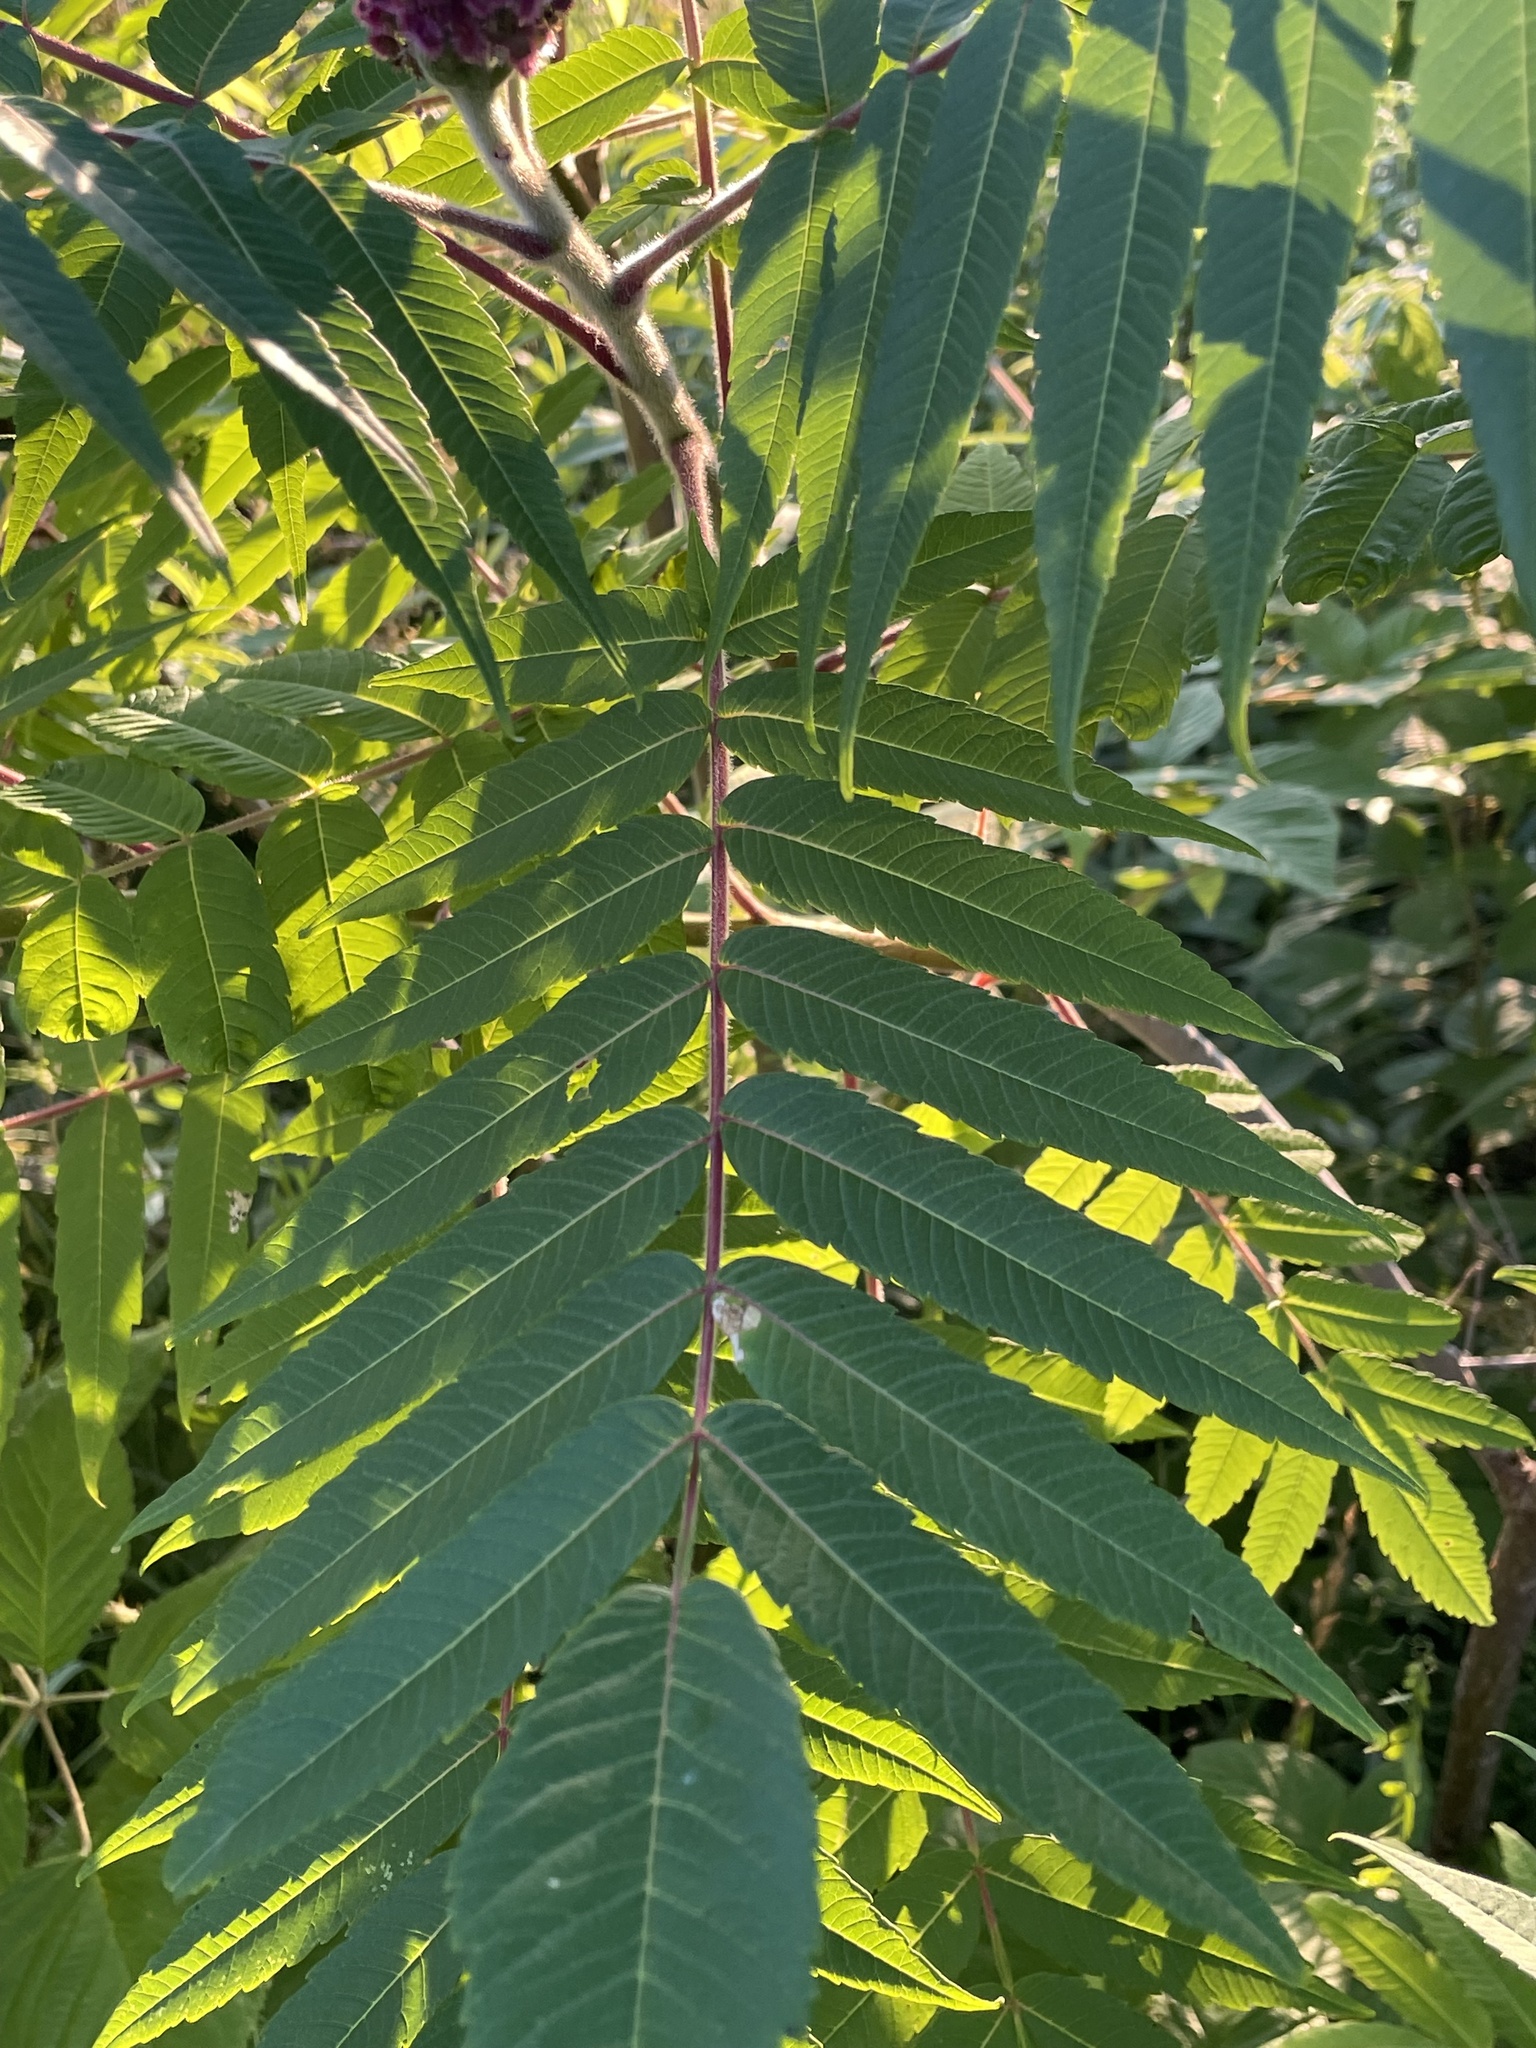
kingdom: Plantae
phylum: Tracheophyta
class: Magnoliopsida
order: Sapindales
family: Anacardiaceae
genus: Rhus
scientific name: Rhus typhina
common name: Staghorn sumac
